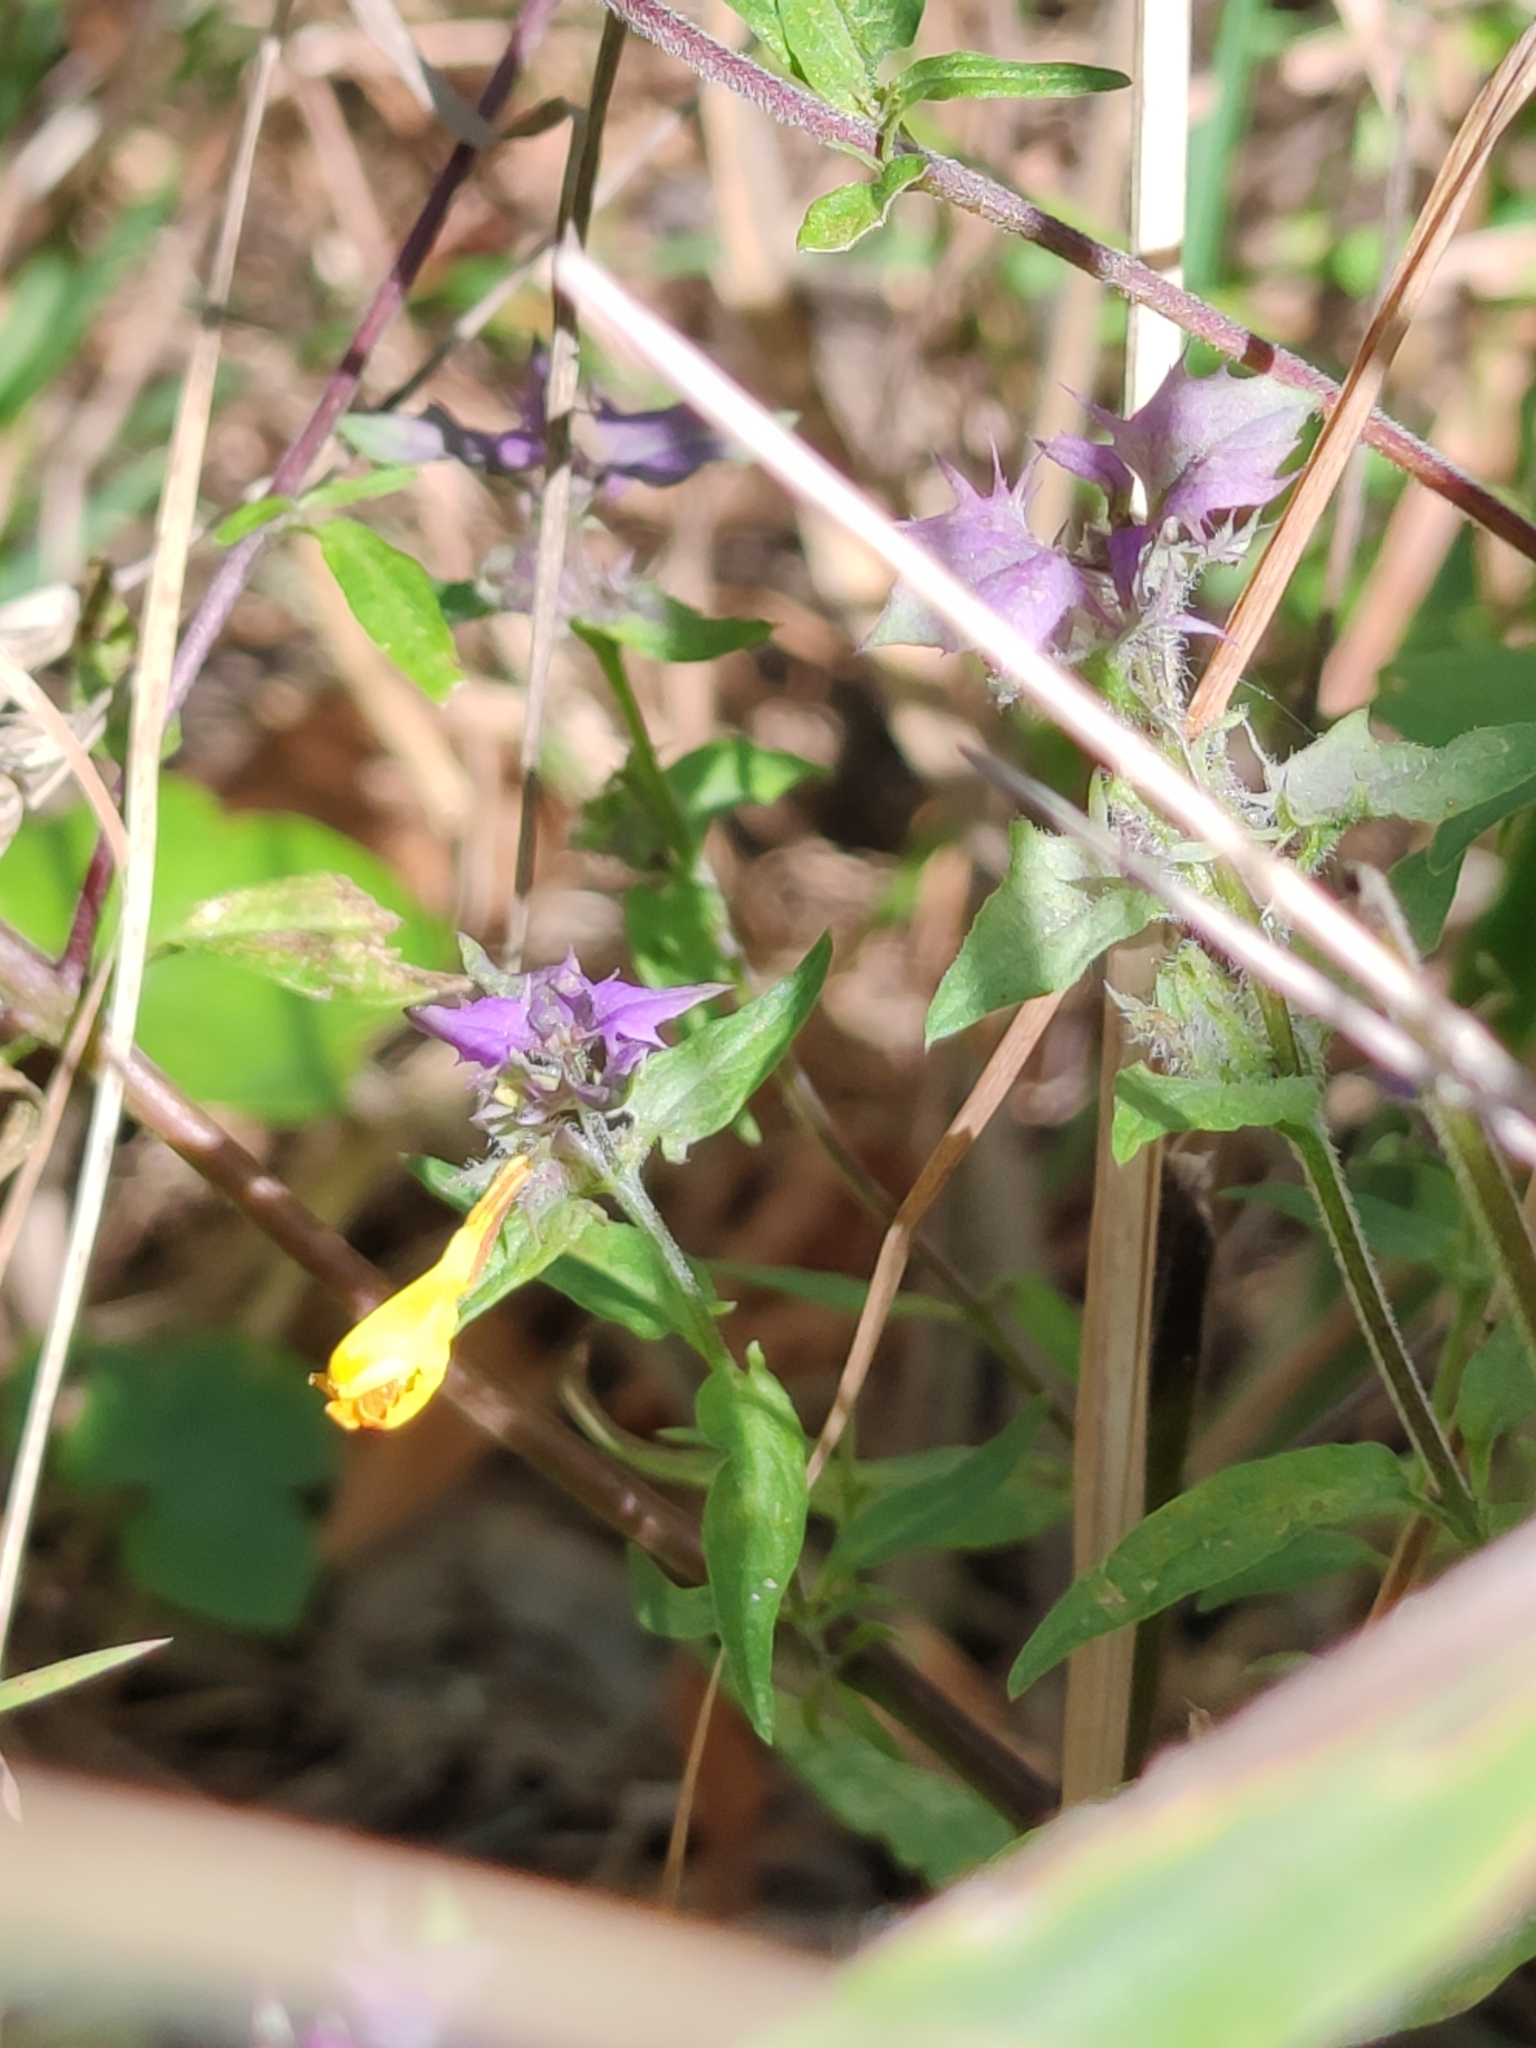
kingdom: Plantae
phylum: Tracheophyta
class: Magnoliopsida
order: Lamiales
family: Orobanchaceae
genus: Melampyrum
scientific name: Melampyrum nemorosum
